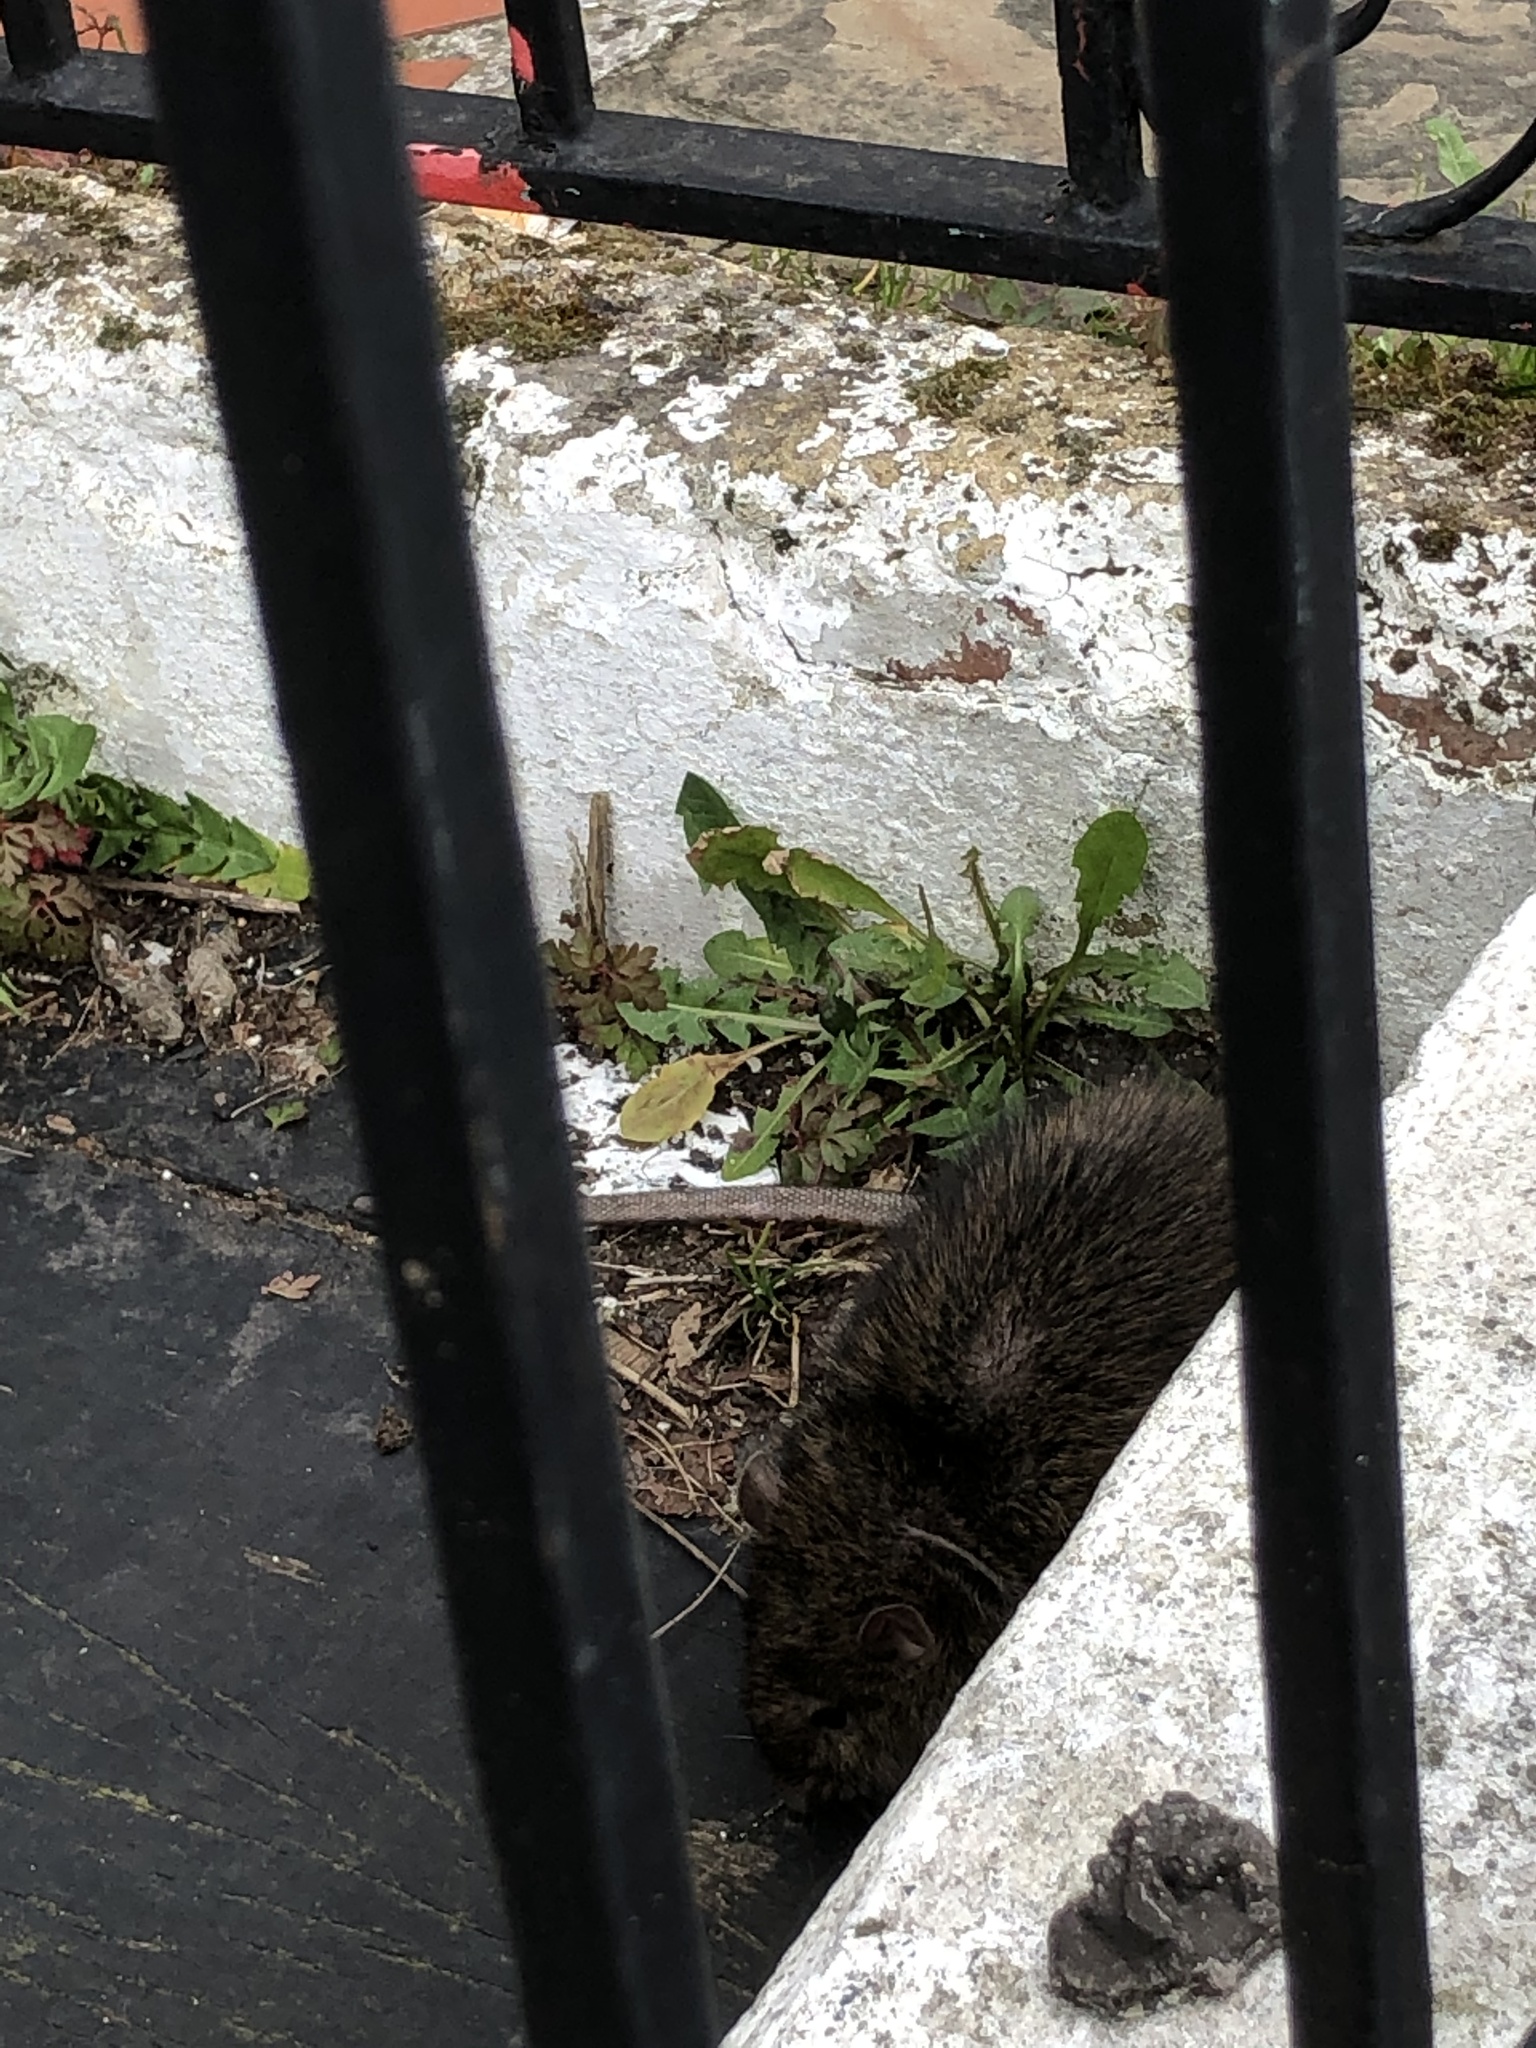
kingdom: Animalia
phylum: Chordata
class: Mammalia
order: Rodentia
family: Muridae
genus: Rattus
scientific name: Rattus norvegicus
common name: Brown rat
